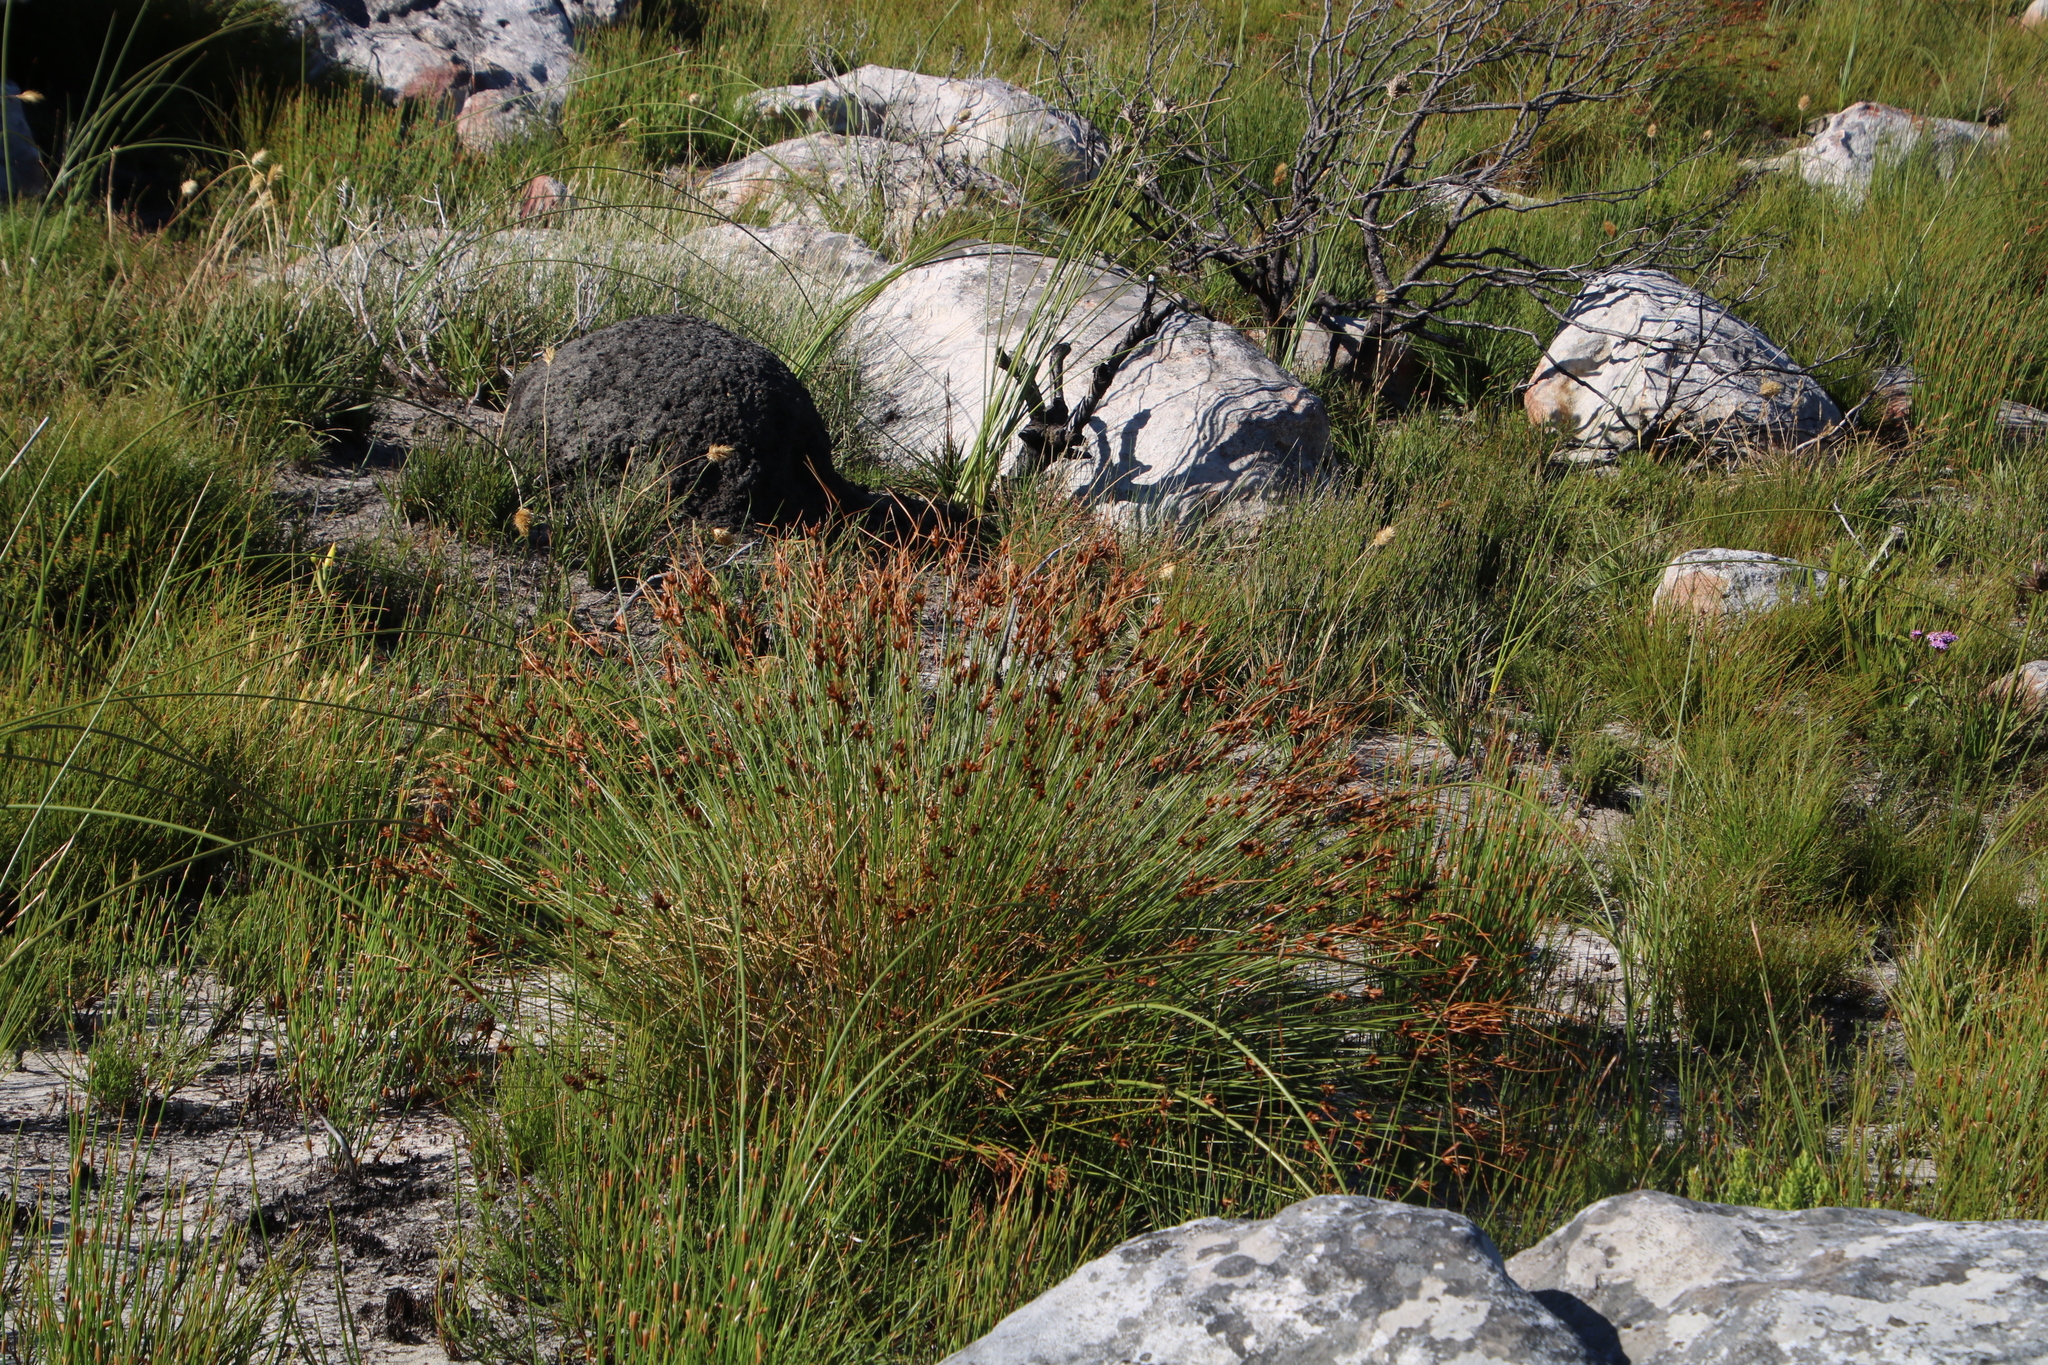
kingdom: Plantae
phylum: Tracheophyta
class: Liliopsida
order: Poales
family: Cyperaceae
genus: Schoenus
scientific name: Schoenus compar
